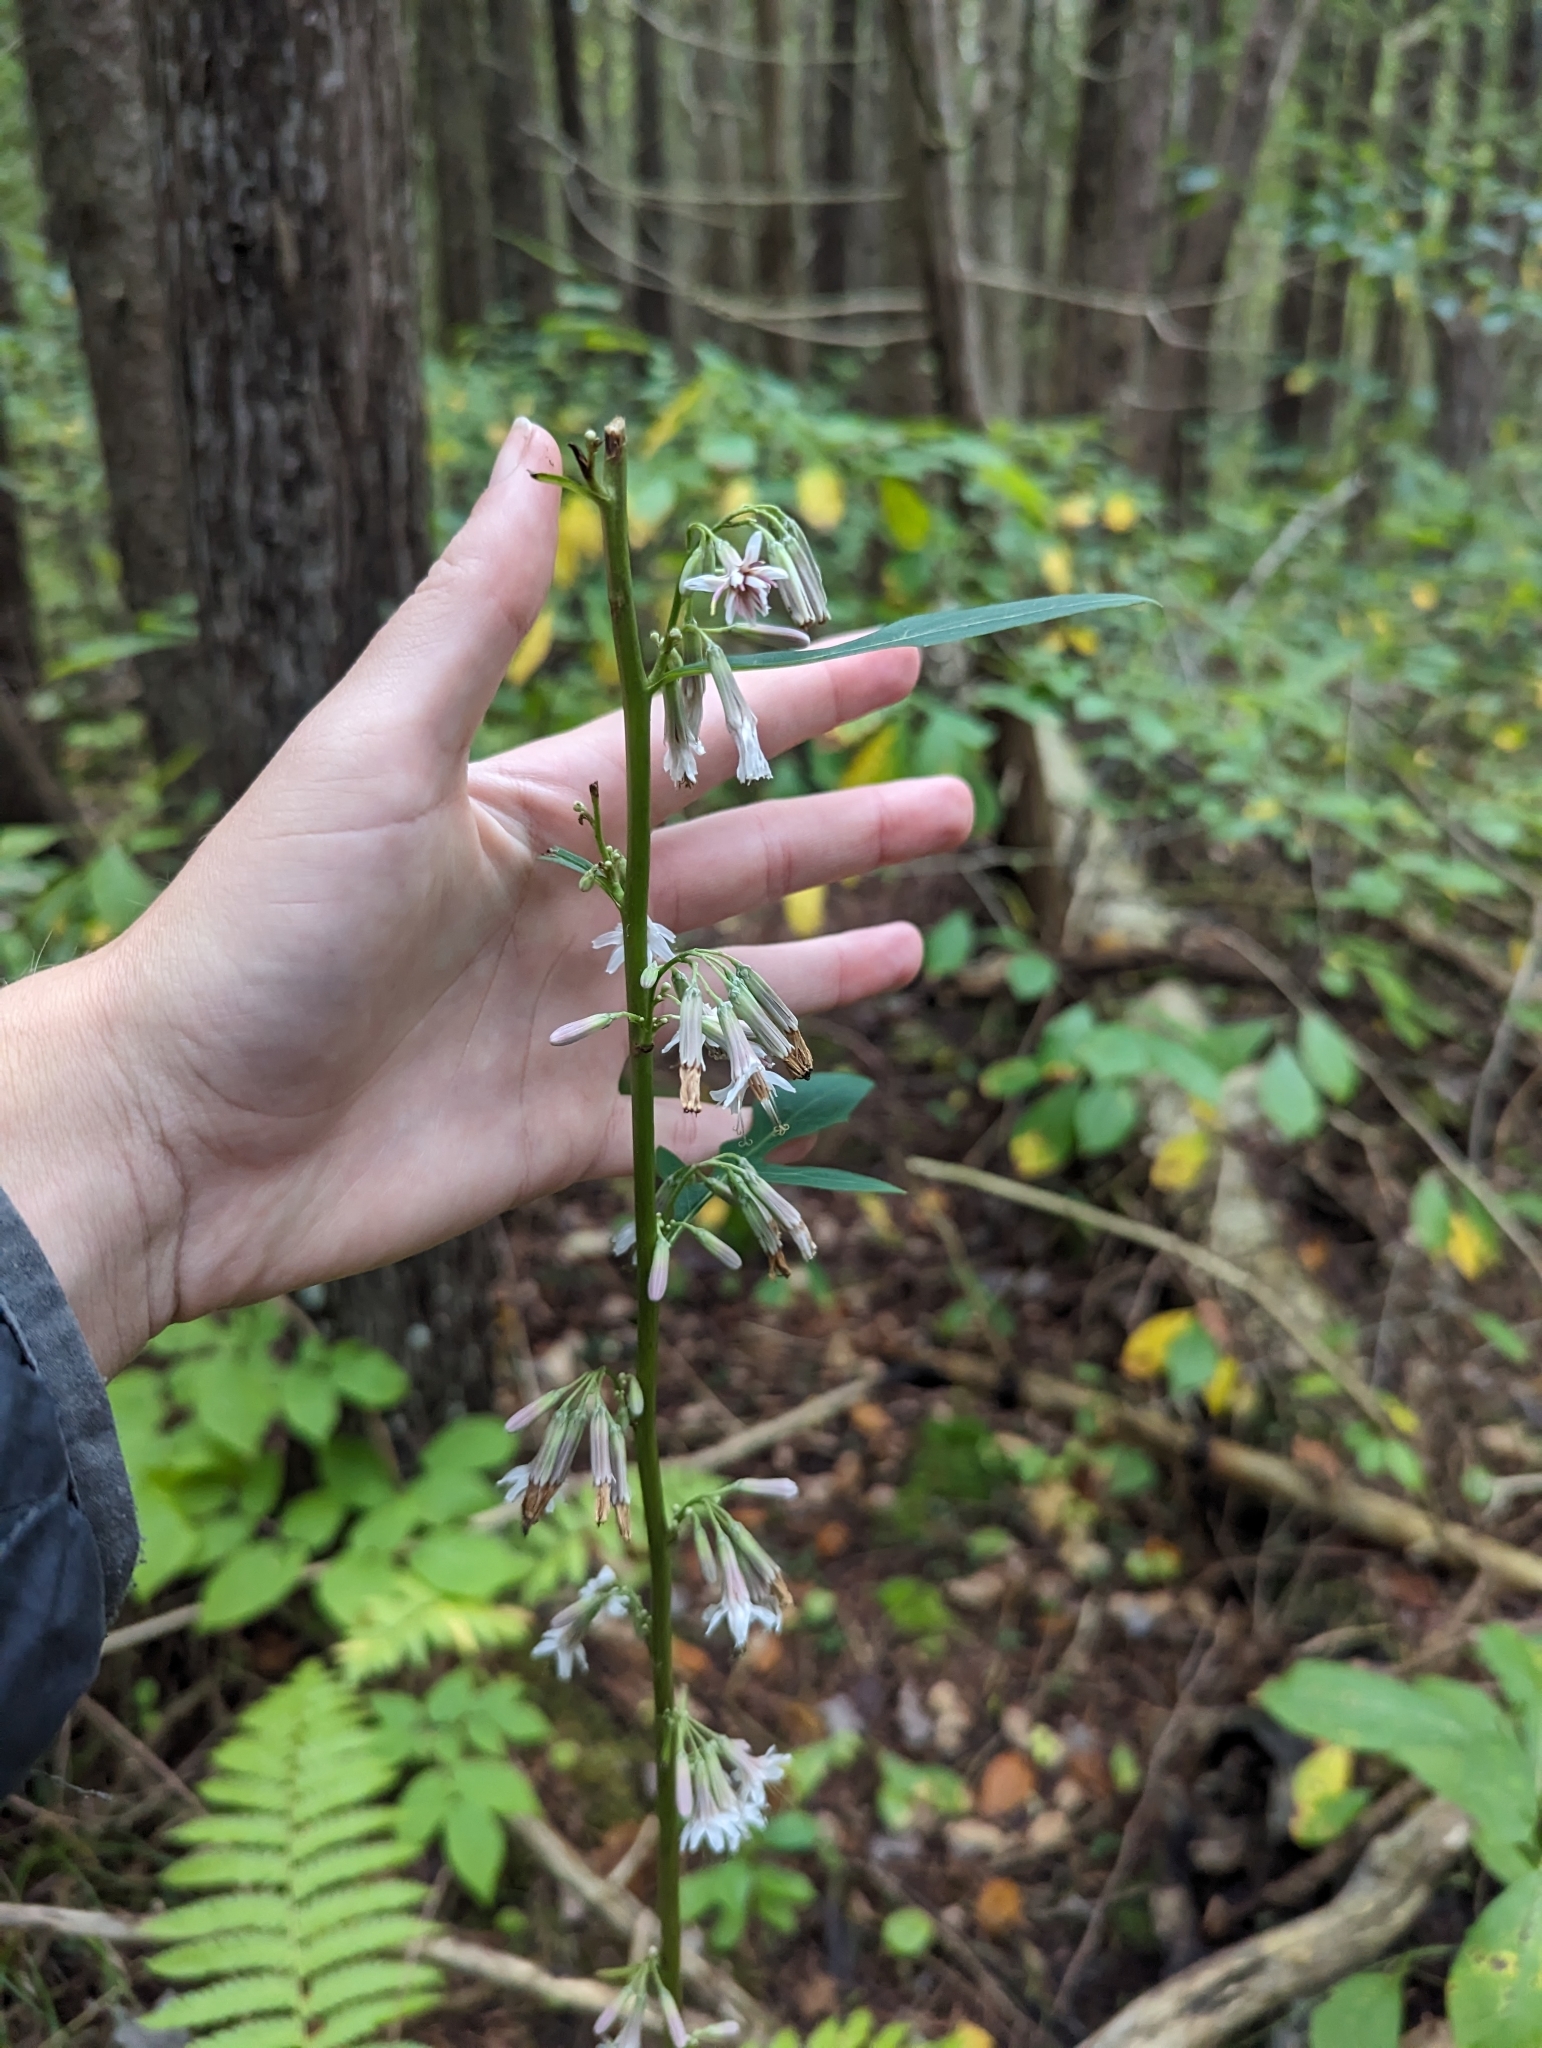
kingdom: Plantae
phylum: Tracheophyta
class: Magnoliopsida
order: Asterales
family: Asteraceae
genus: Nabalus
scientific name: Nabalus albus
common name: White rattlesnakeroot
